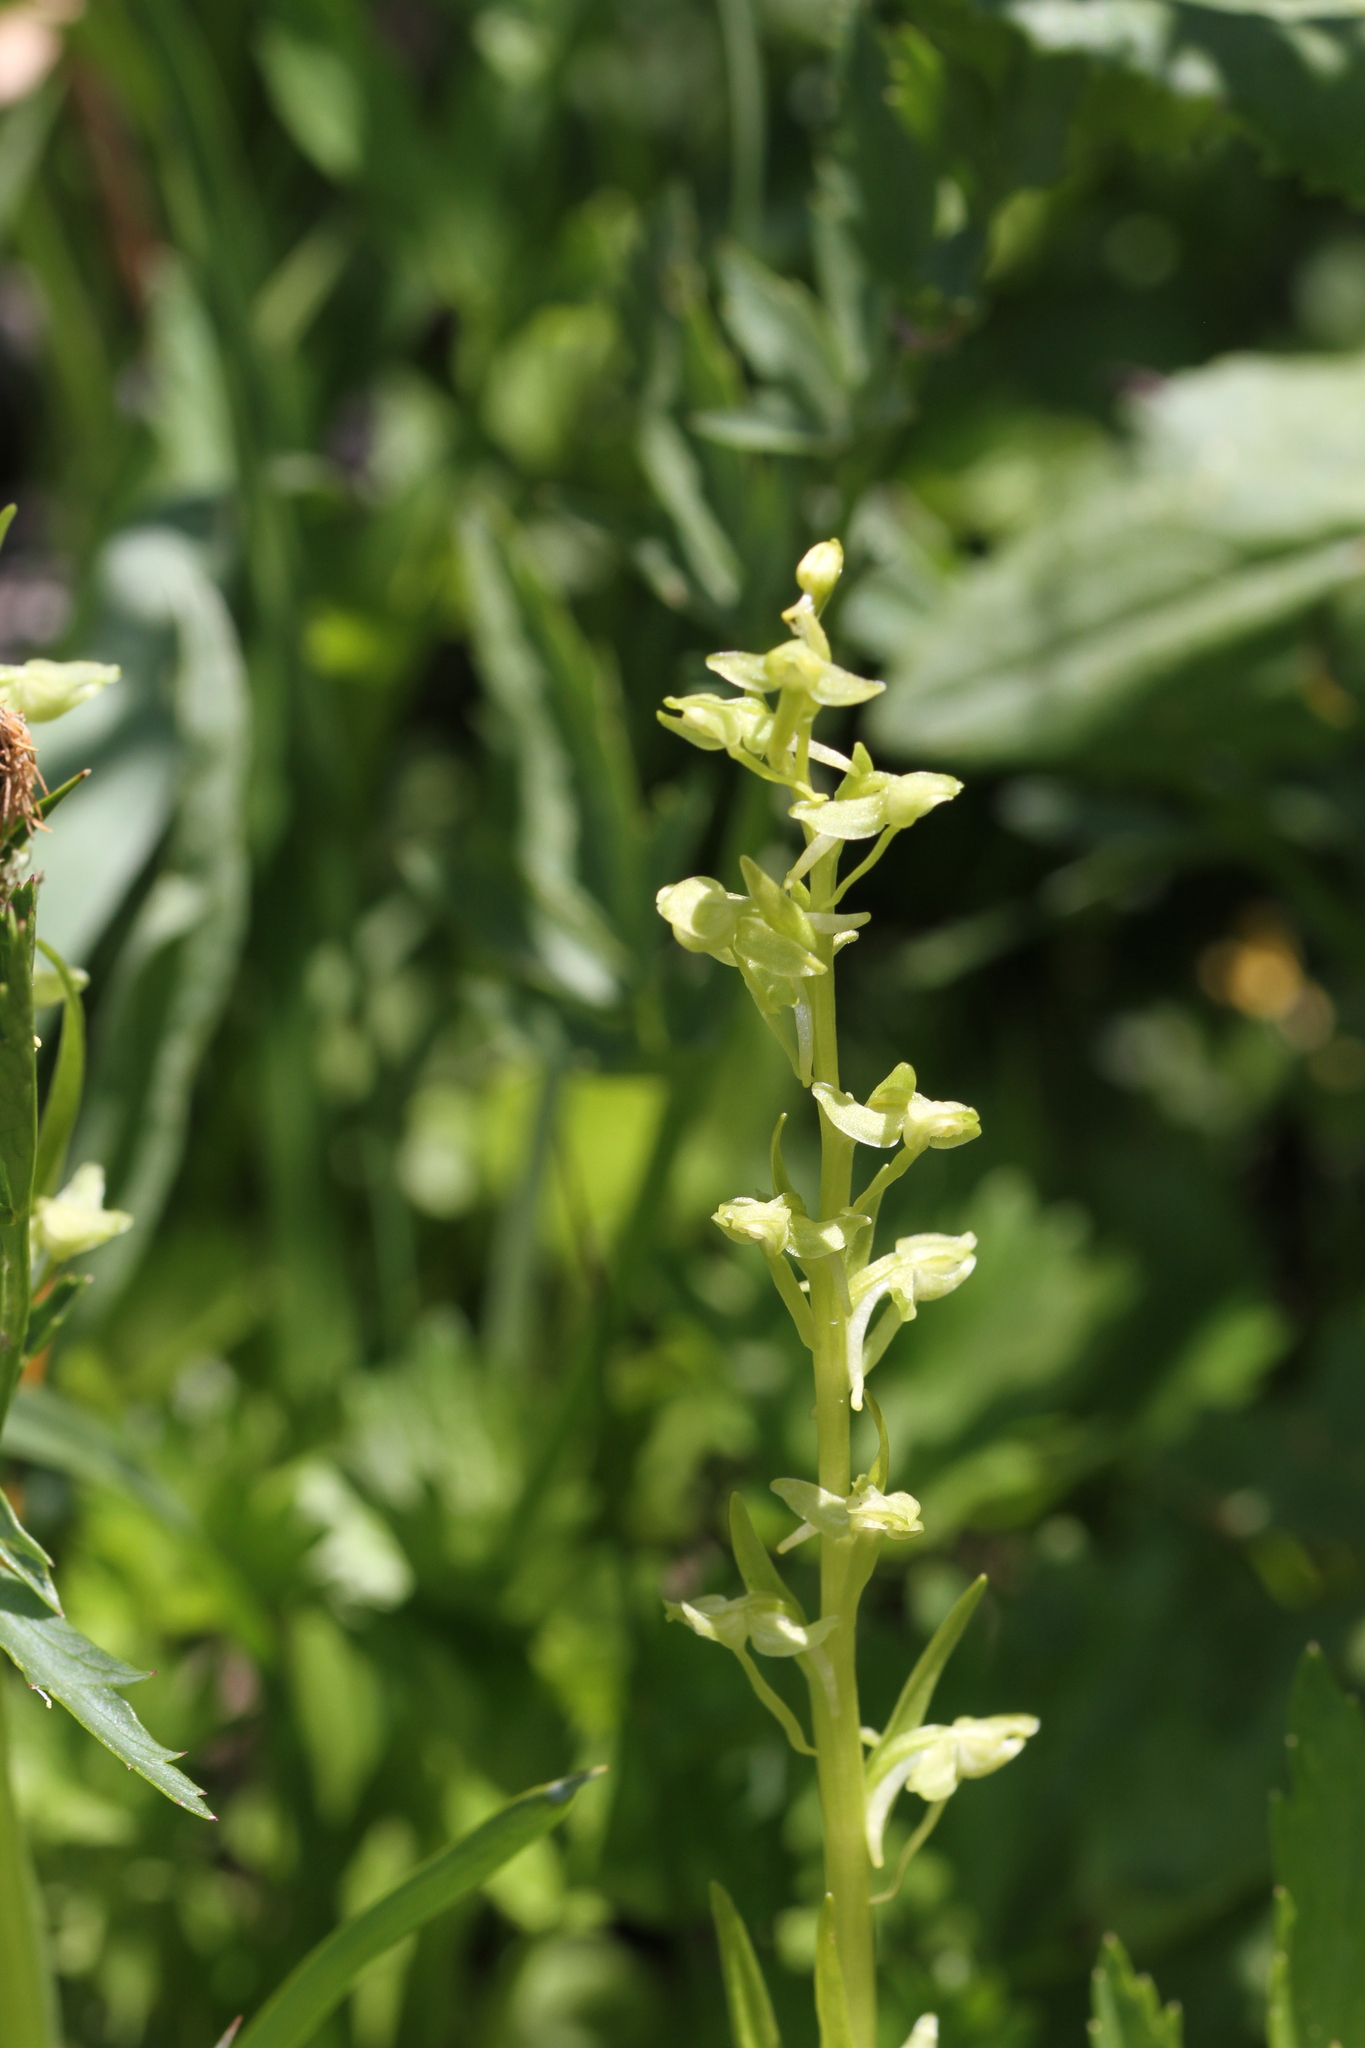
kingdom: Plantae
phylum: Tracheophyta
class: Liliopsida
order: Asparagales
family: Orchidaceae
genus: Platanthera
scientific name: Platanthera sparsiflora
